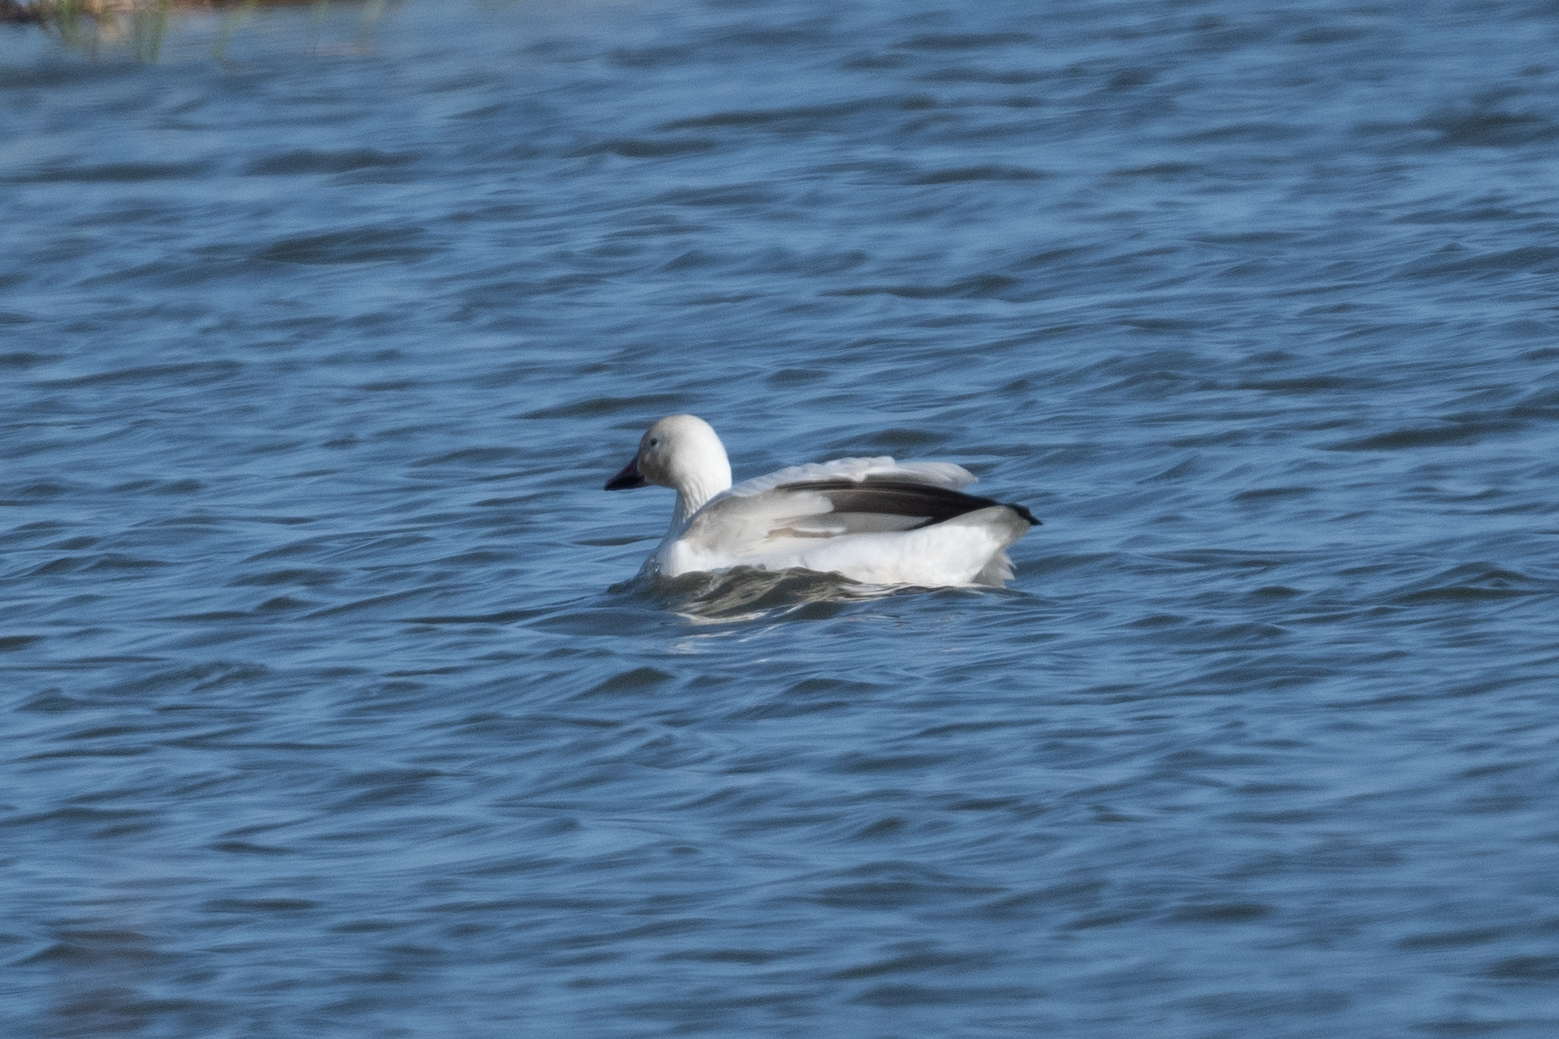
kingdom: Animalia
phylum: Chordata
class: Aves
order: Anseriformes
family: Anatidae
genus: Anser
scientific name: Anser caerulescens
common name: Snow goose
